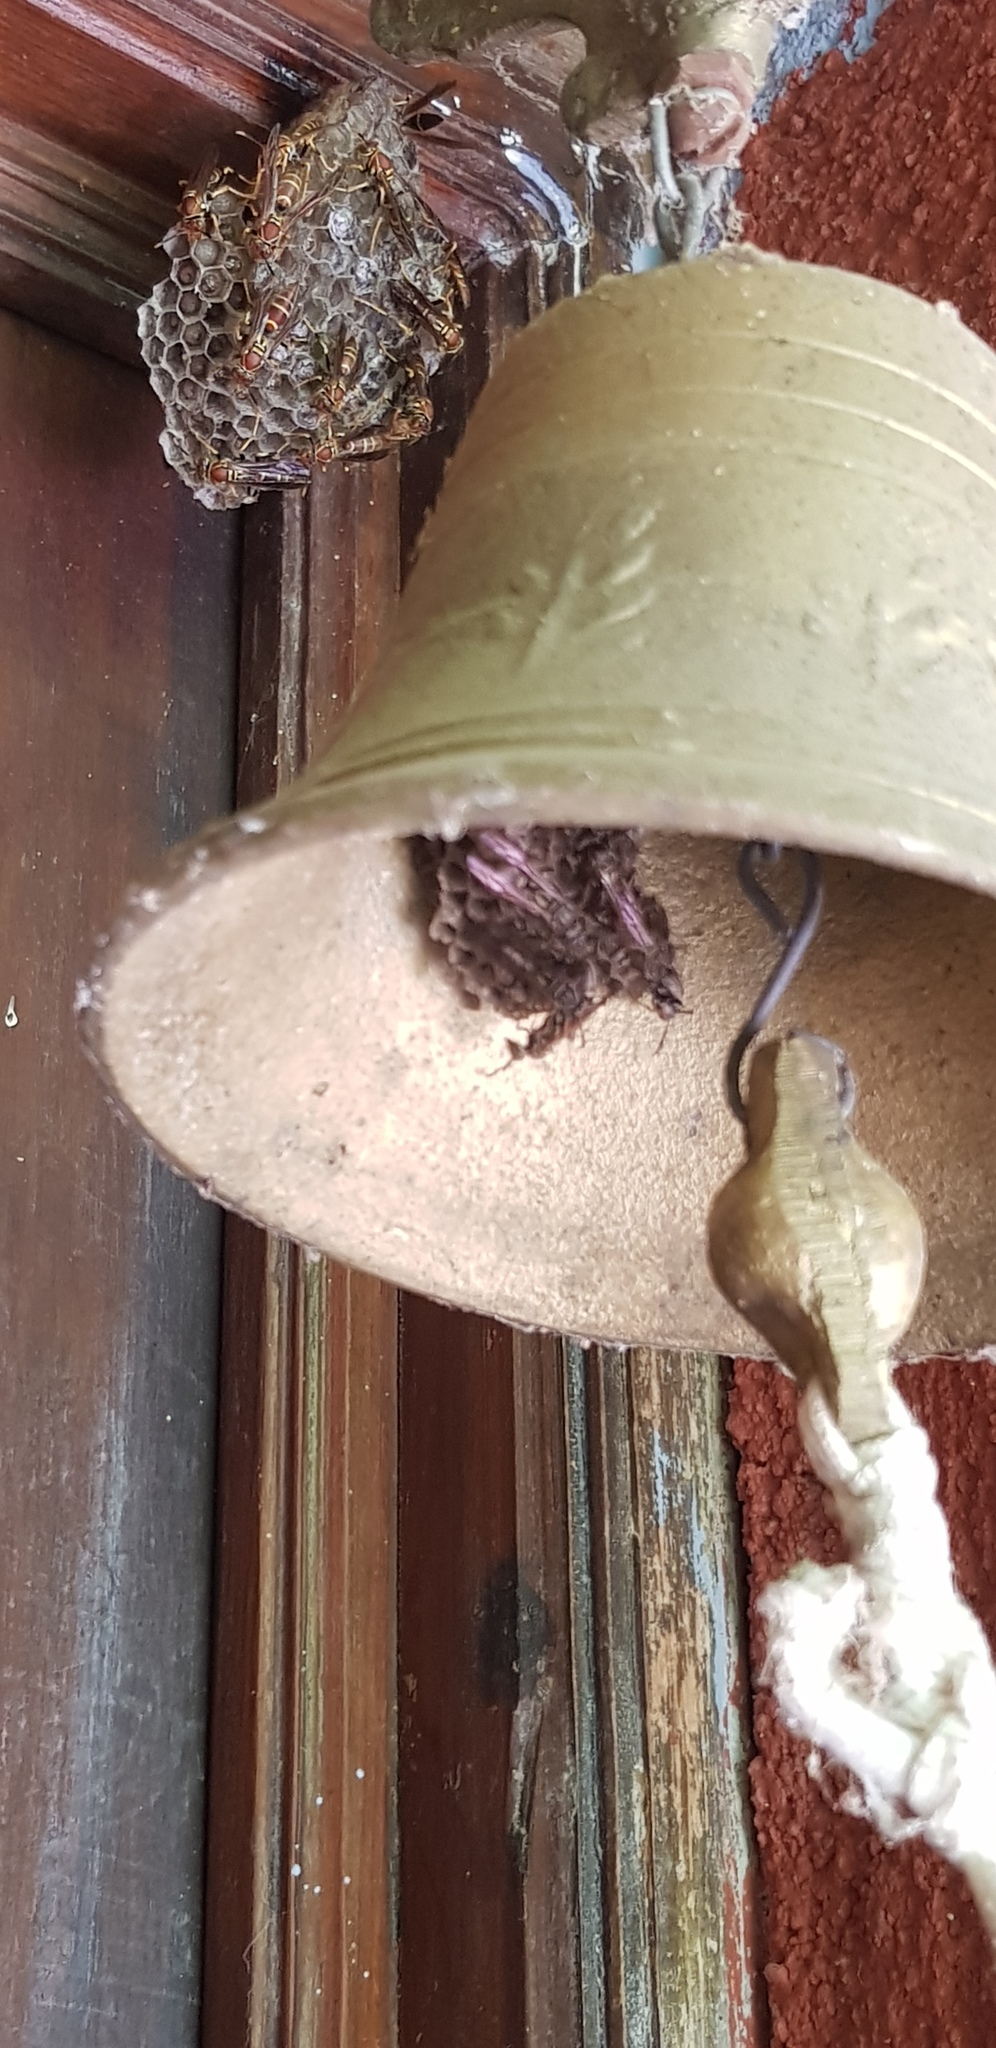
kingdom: Animalia
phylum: Arthropoda
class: Insecta
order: Hymenoptera
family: Eumenidae
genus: Polistes
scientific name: Polistes instabilis
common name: Unstable paper wasp
